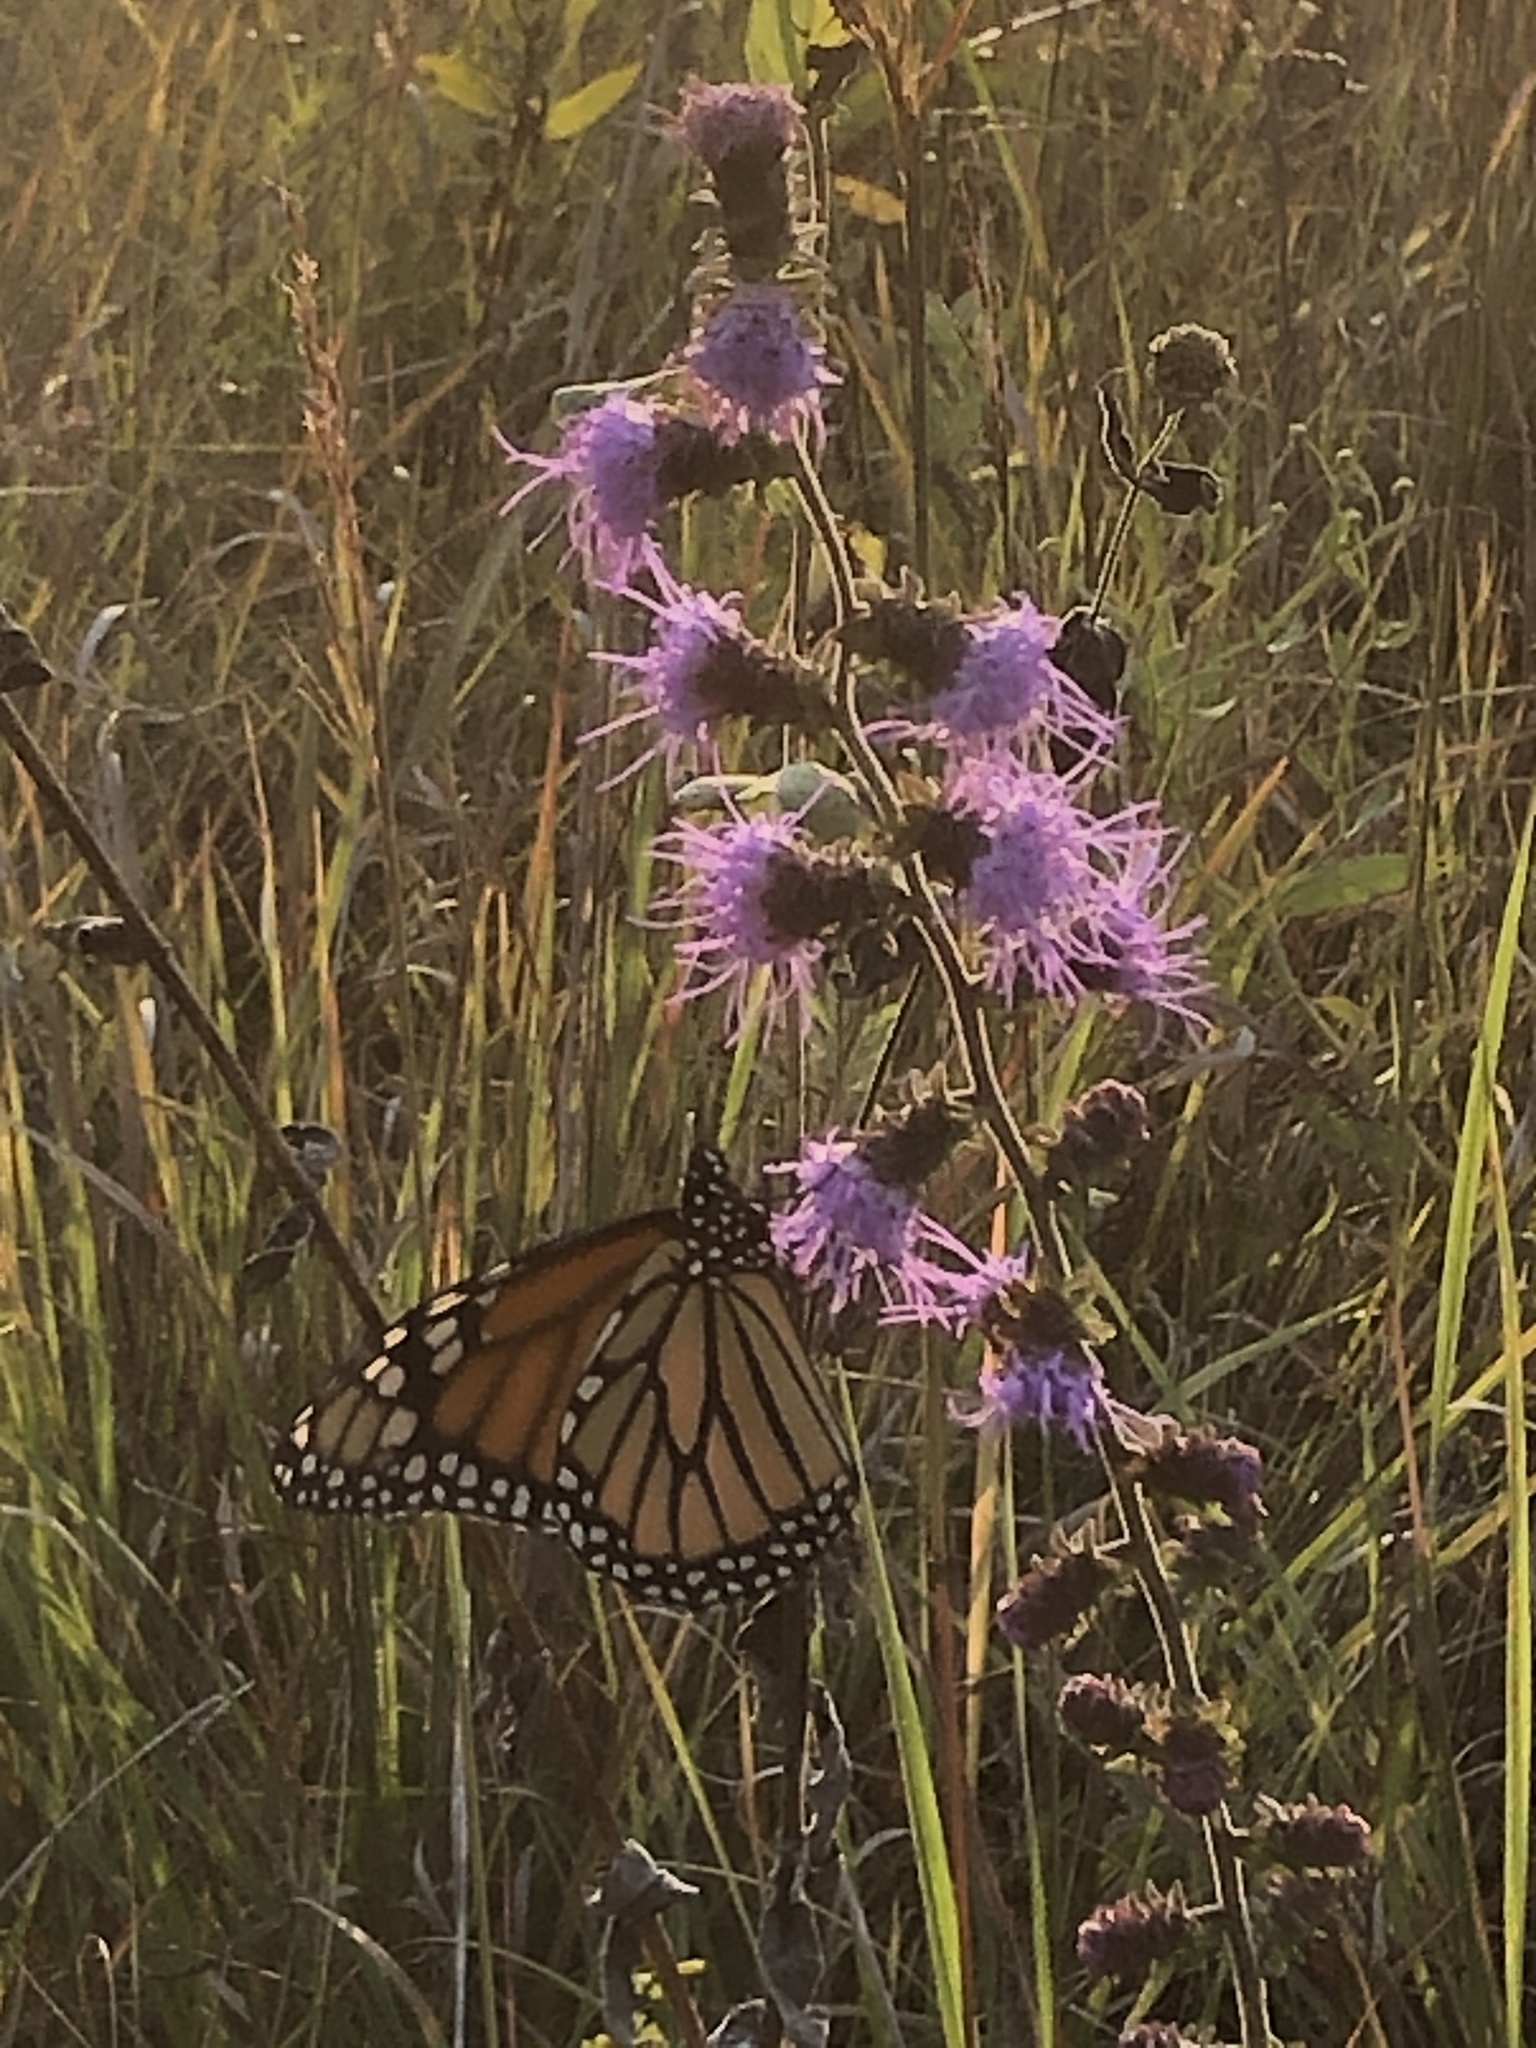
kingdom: Animalia
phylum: Arthropoda
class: Insecta
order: Lepidoptera
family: Nymphalidae
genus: Danaus
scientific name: Danaus plexippus
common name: Monarch
